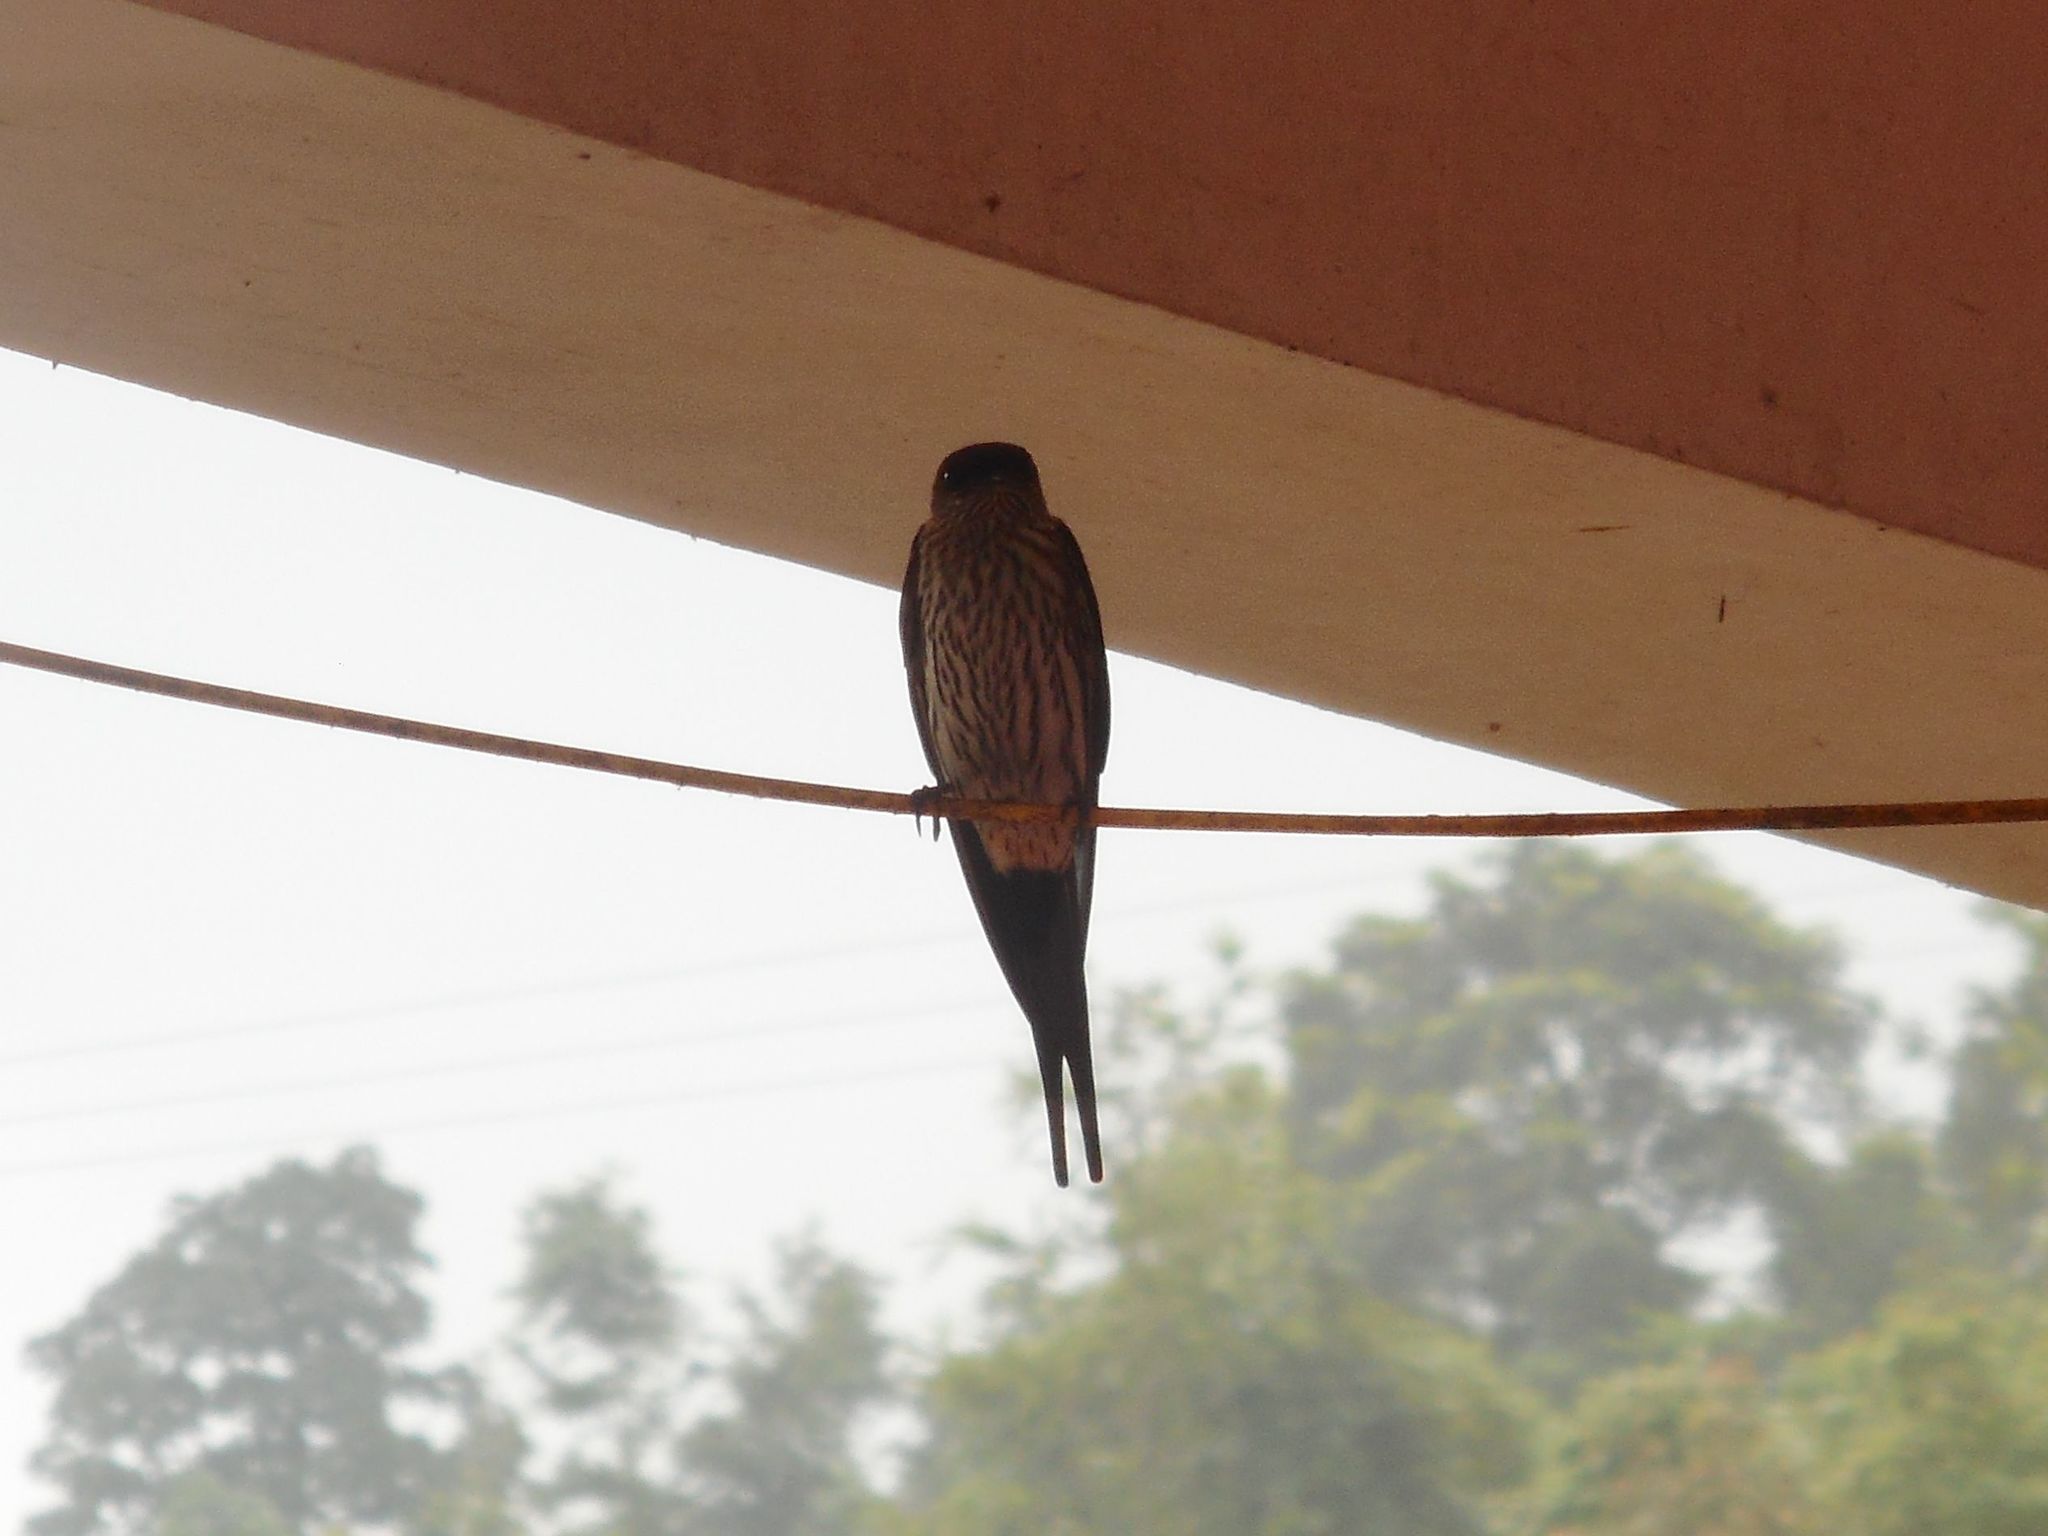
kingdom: Animalia
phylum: Chordata
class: Aves
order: Passeriformes
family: Hirundinidae
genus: Cecropis
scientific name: Cecropis striolata
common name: Striated swallow
